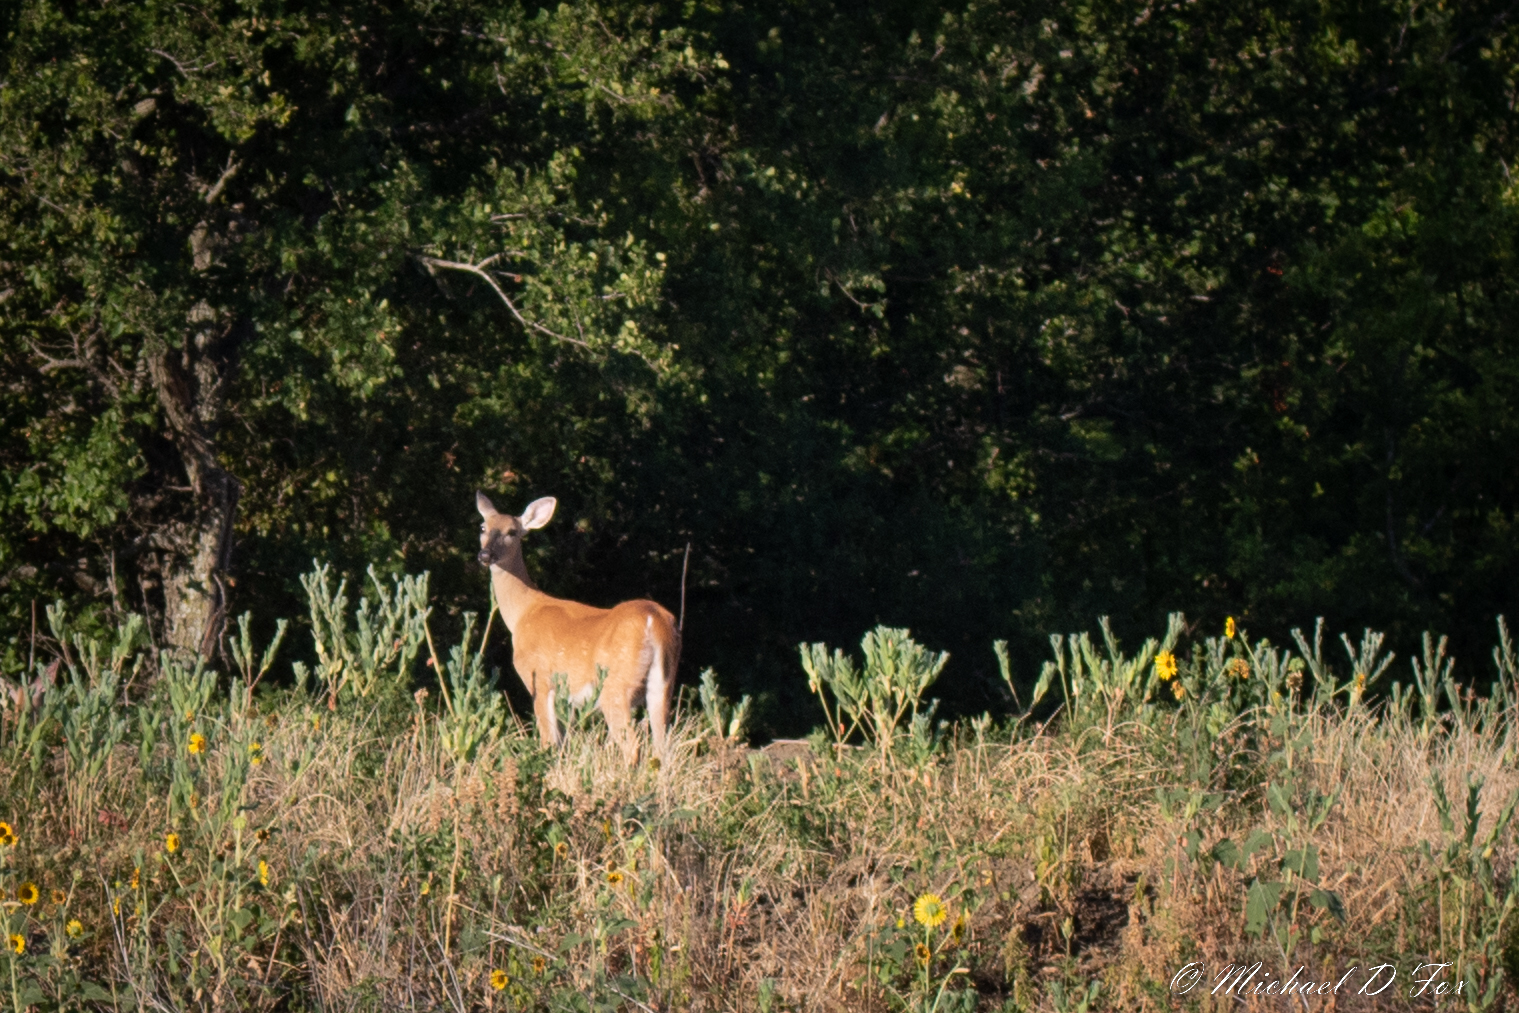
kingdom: Animalia
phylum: Chordata
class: Mammalia
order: Artiodactyla
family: Cervidae
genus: Odocoileus
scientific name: Odocoileus virginianus
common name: White-tailed deer
